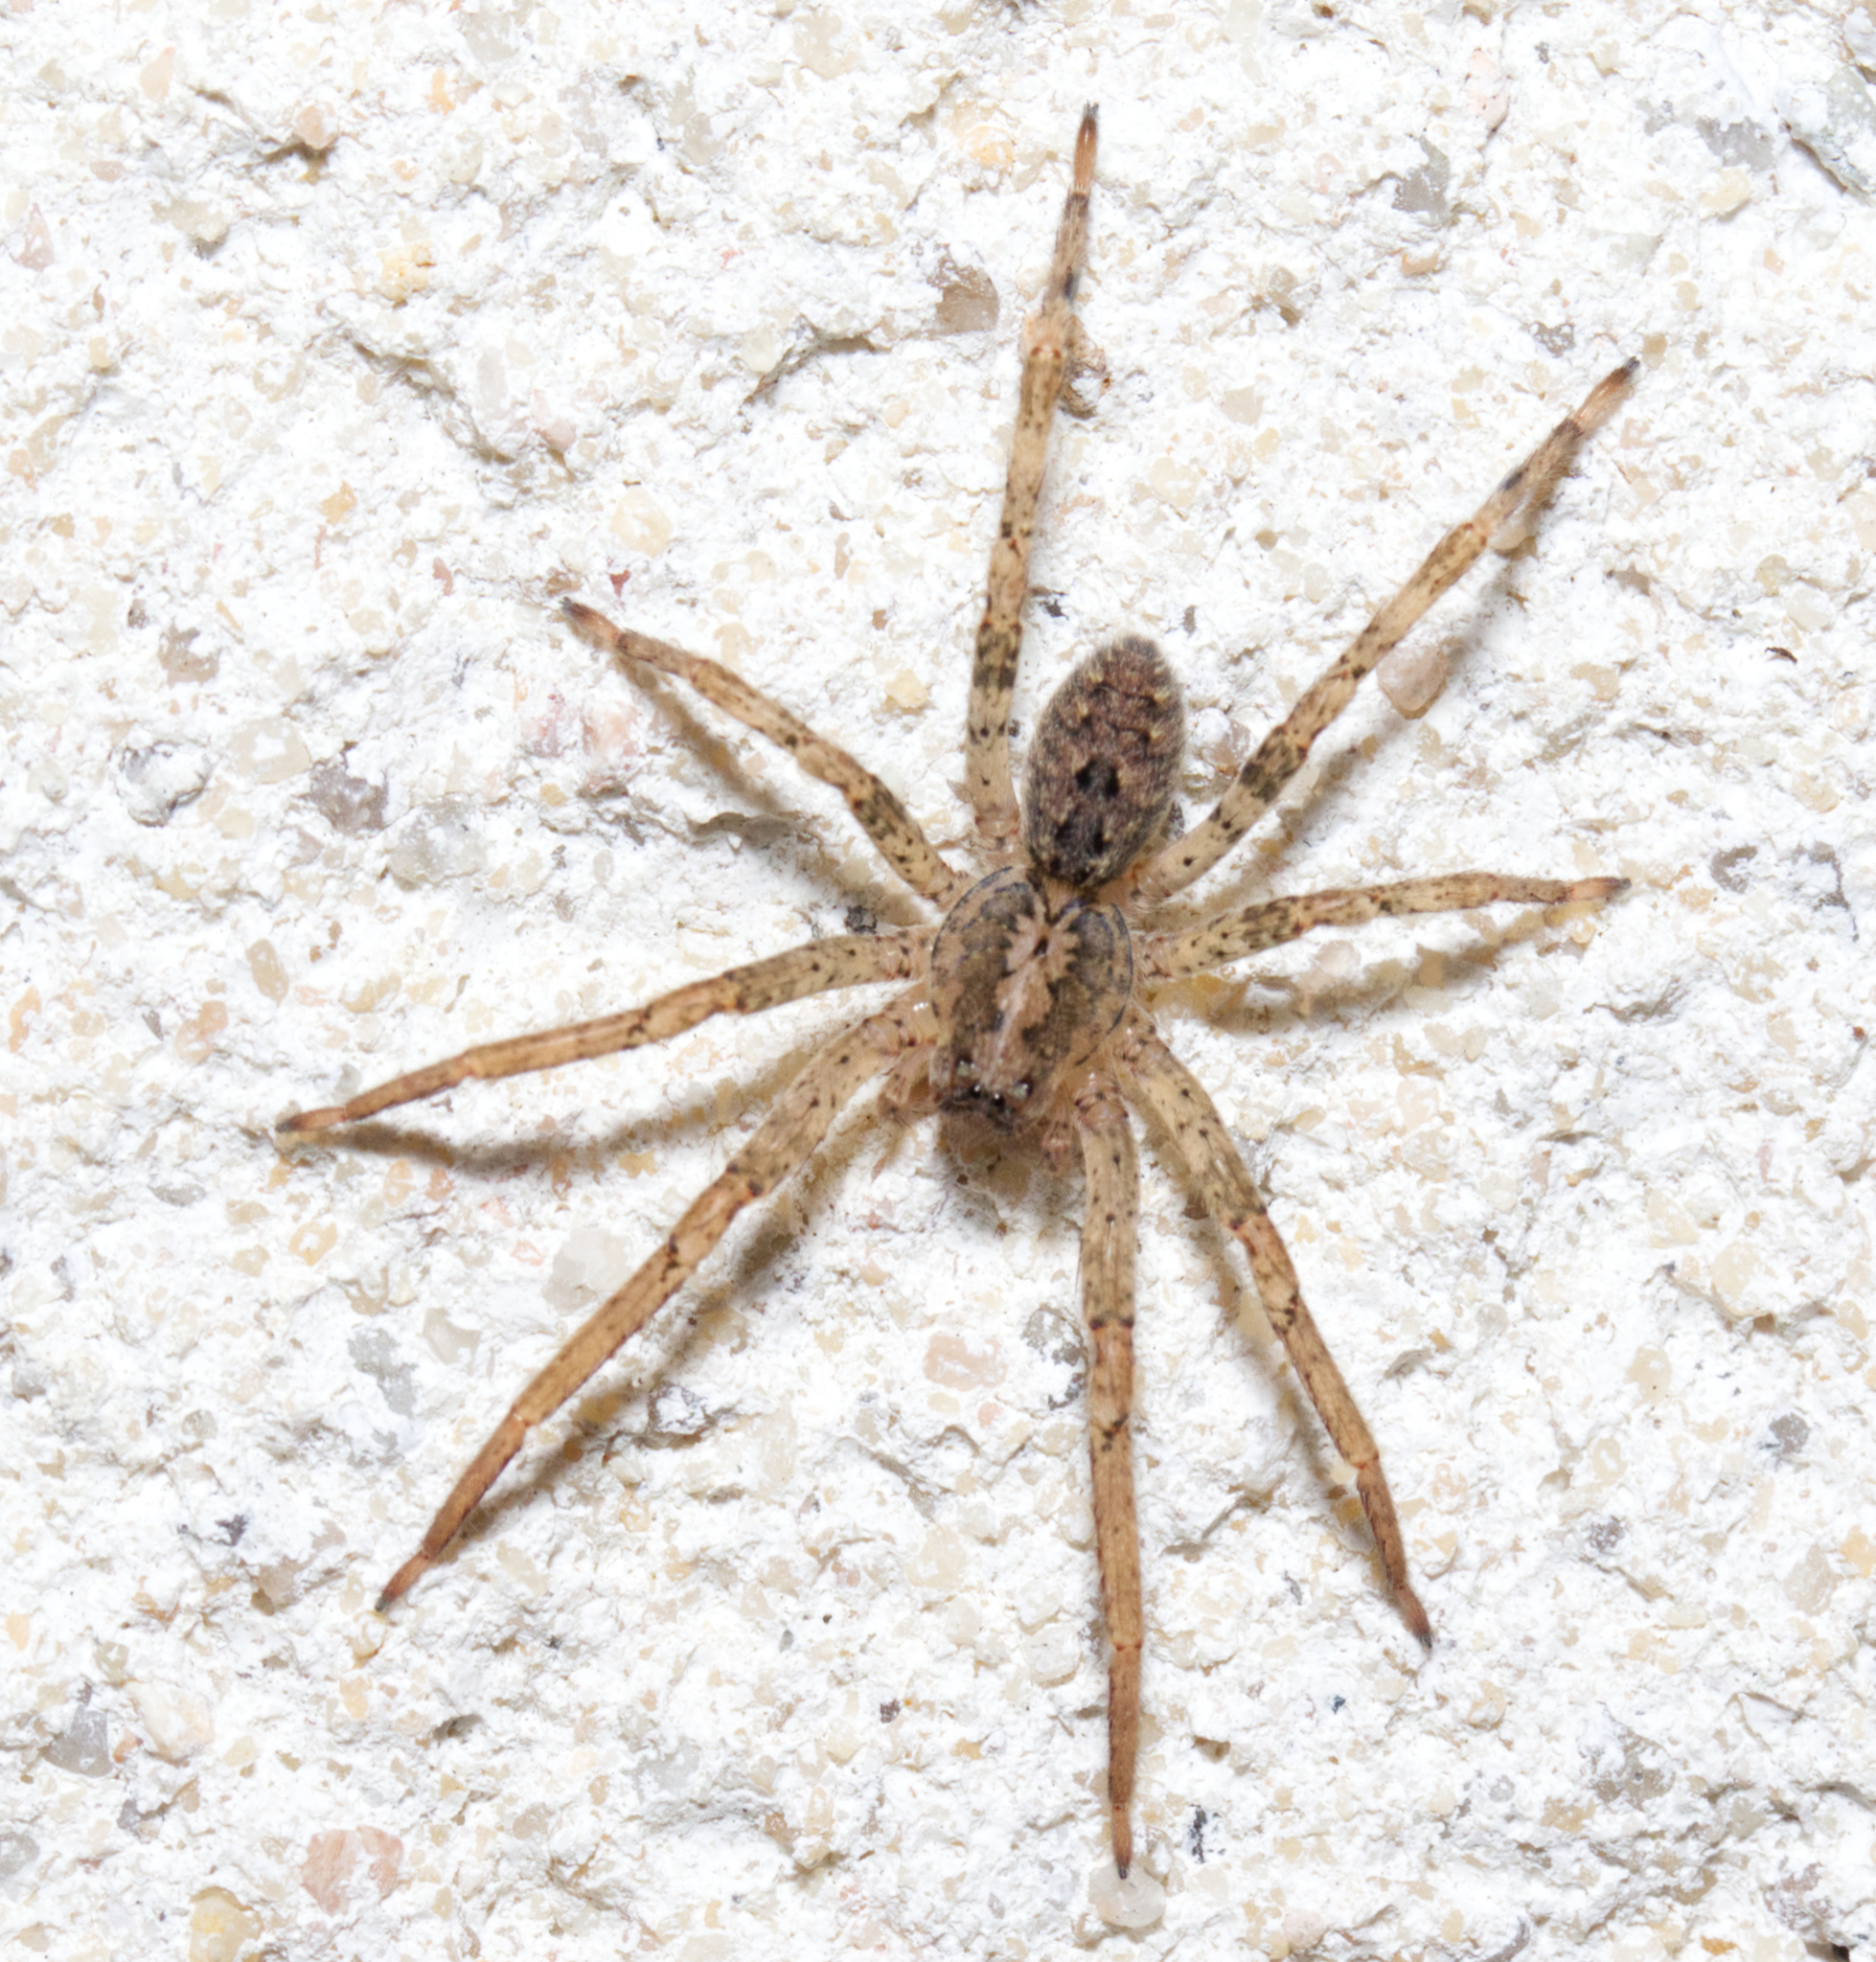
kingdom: Animalia
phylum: Arthropoda
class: Arachnida
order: Araneae
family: Zoropsidae
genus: Zoropsis
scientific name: Zoropsis spinimana
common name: Zoropsid spider
